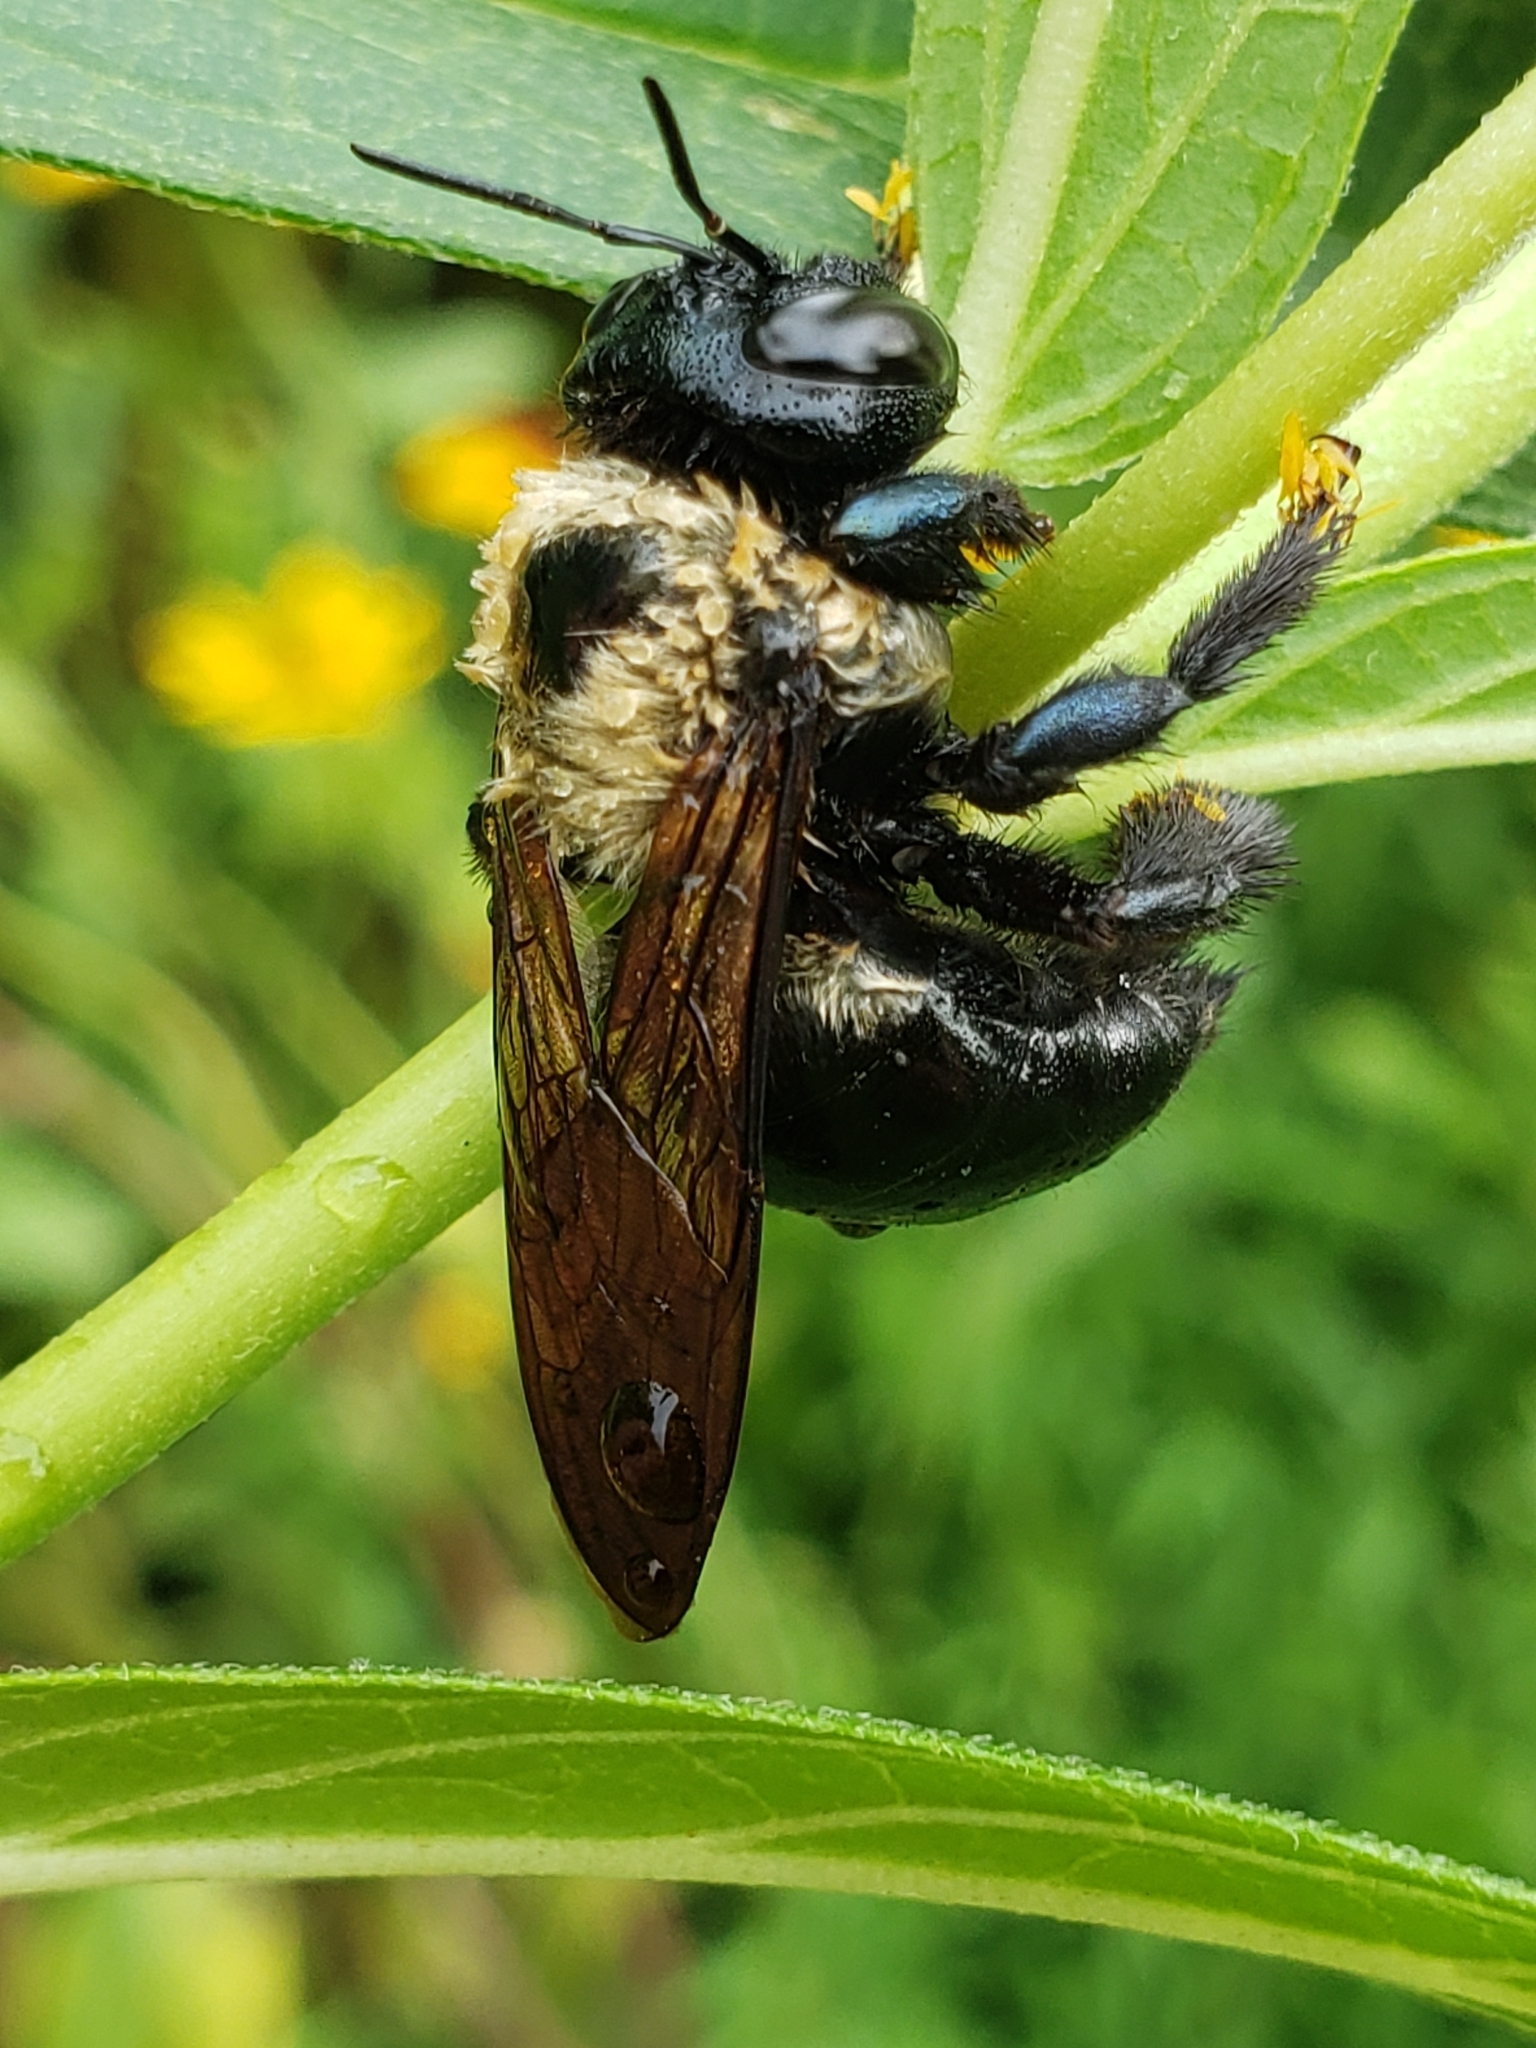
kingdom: Animalia
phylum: Arthropoda
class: Insecta
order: Hymenoptera
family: Apidae
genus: Xylocopa
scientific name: Xylocopa virginica
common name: Carpenter bee
